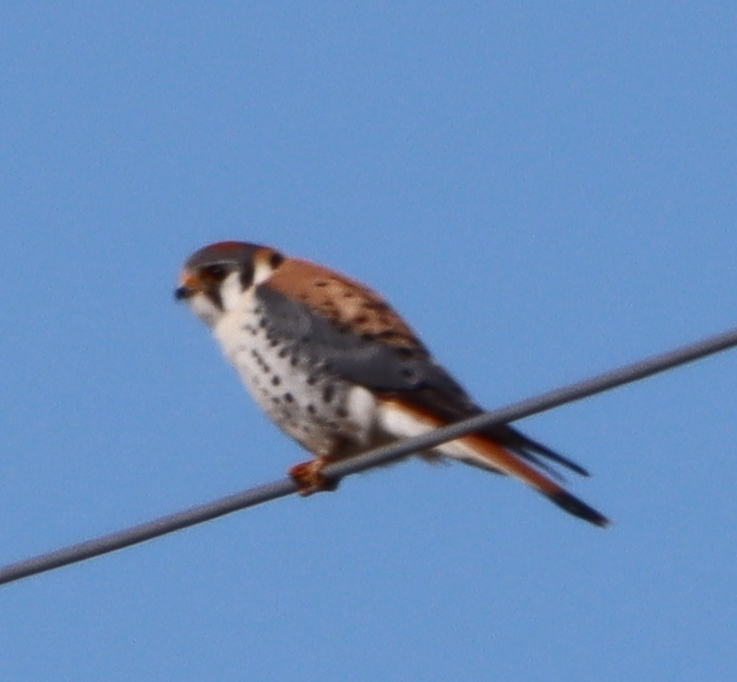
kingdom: Animalia
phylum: Chordata
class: Aves
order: Falconiformes
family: Falconidae
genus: Falco
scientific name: Falco sparverius
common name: American kestrel
